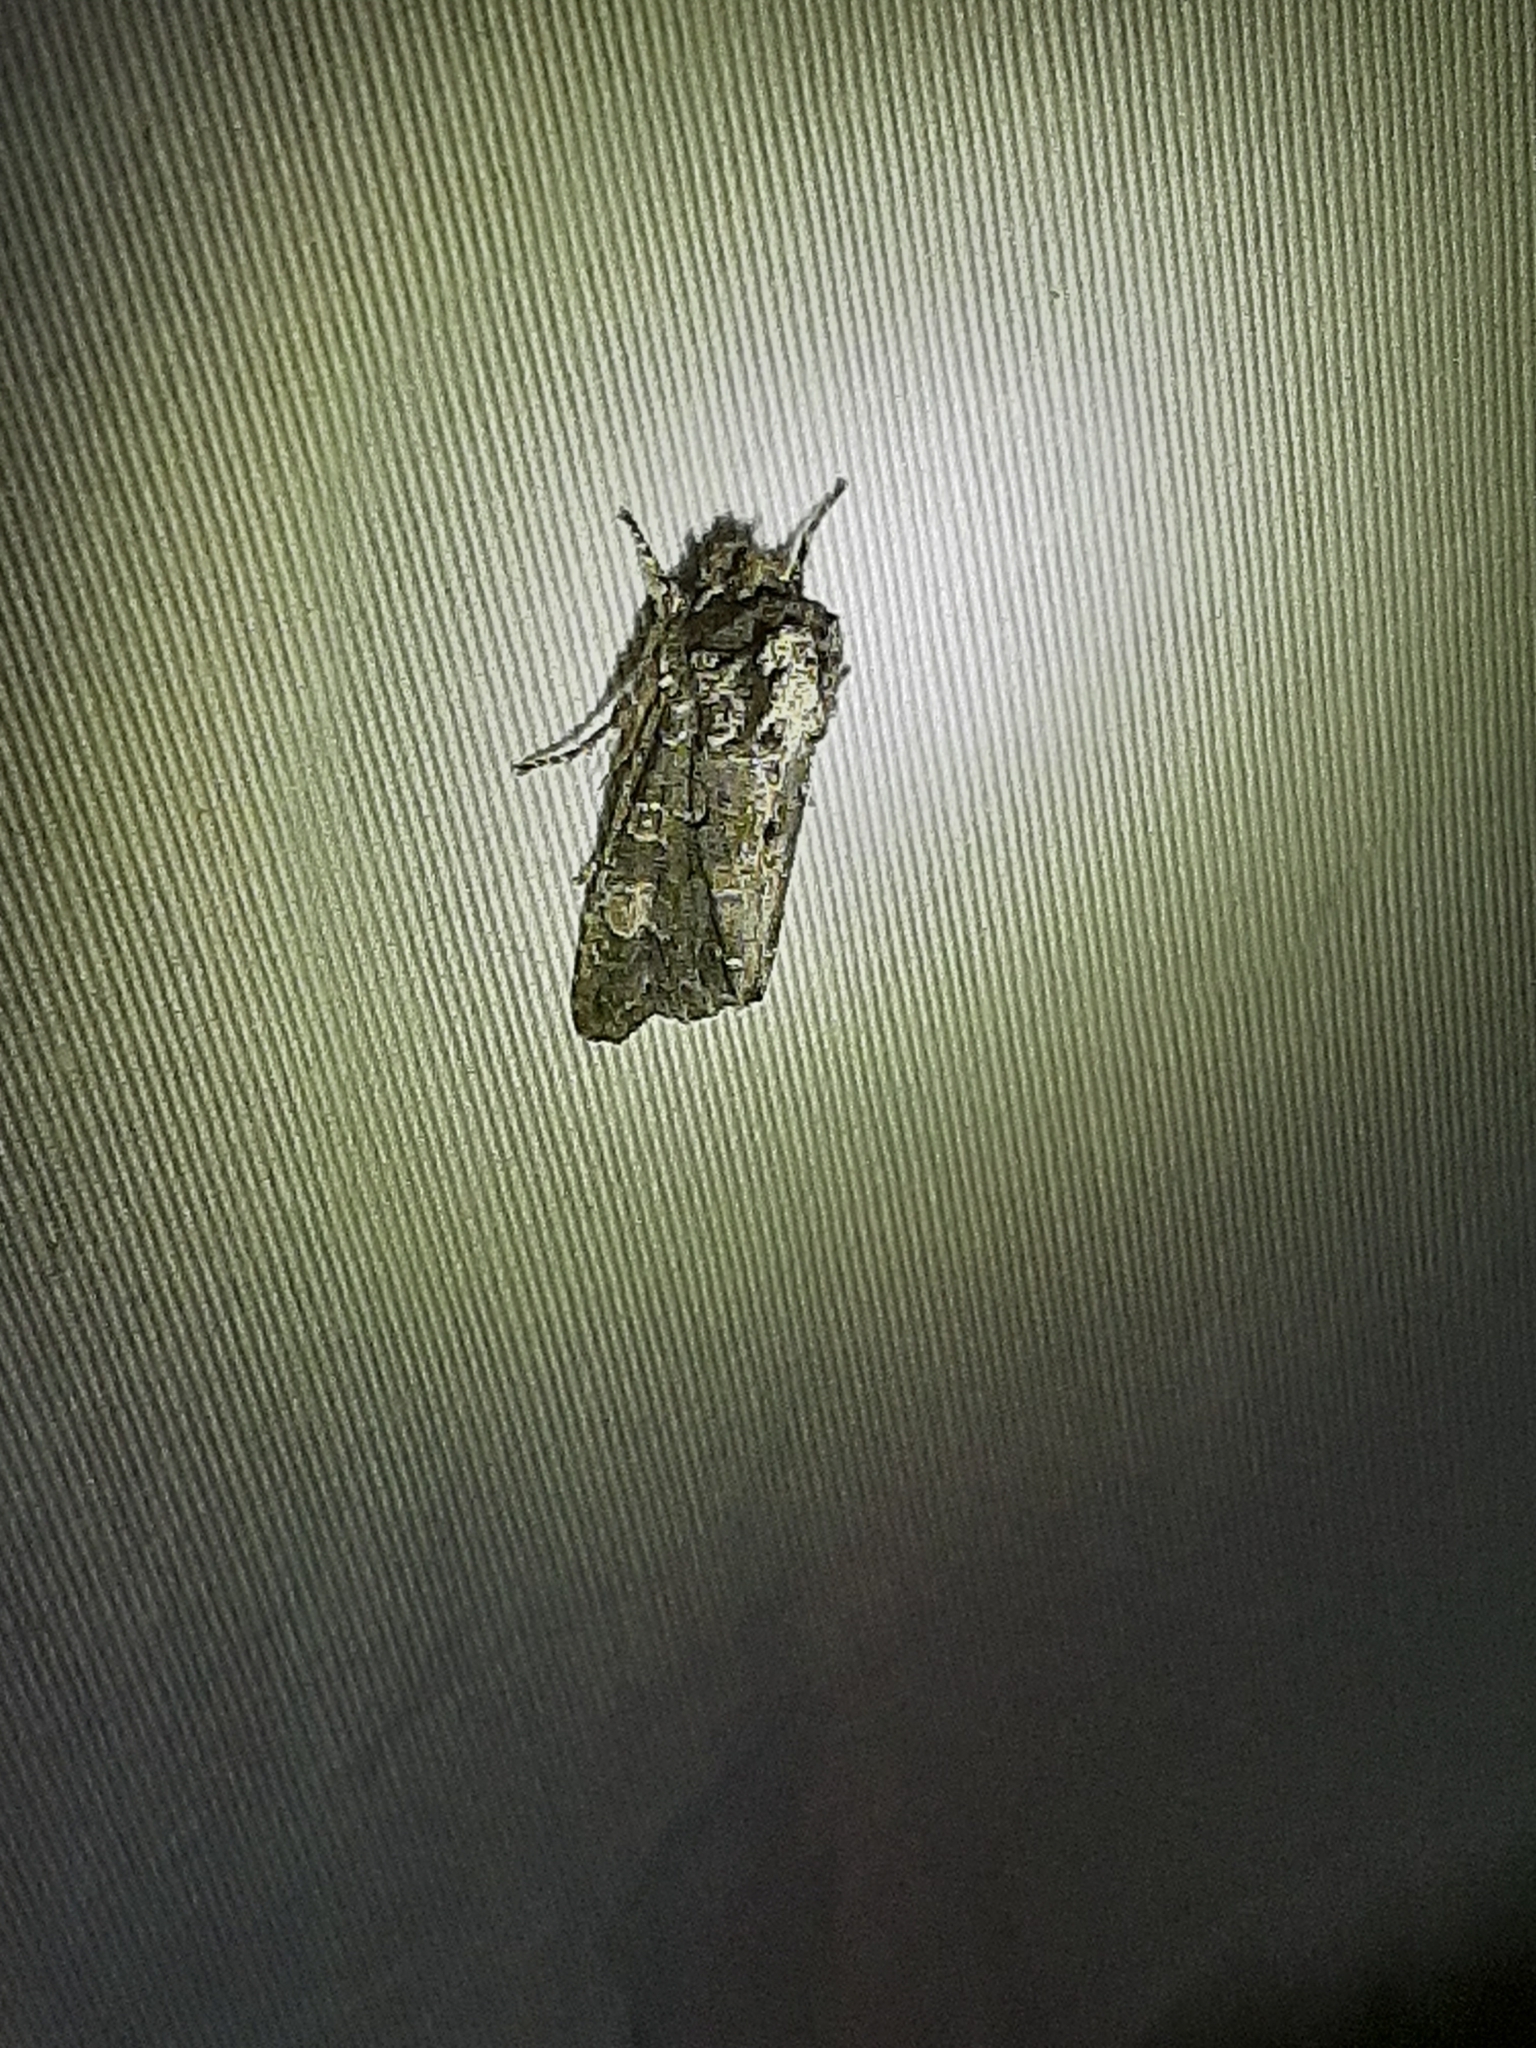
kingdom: Animalia
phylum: Arthropoda
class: Insecta
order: Lepidoptera
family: Noctuidae
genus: Psaphida
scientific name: Psaphida grotei
